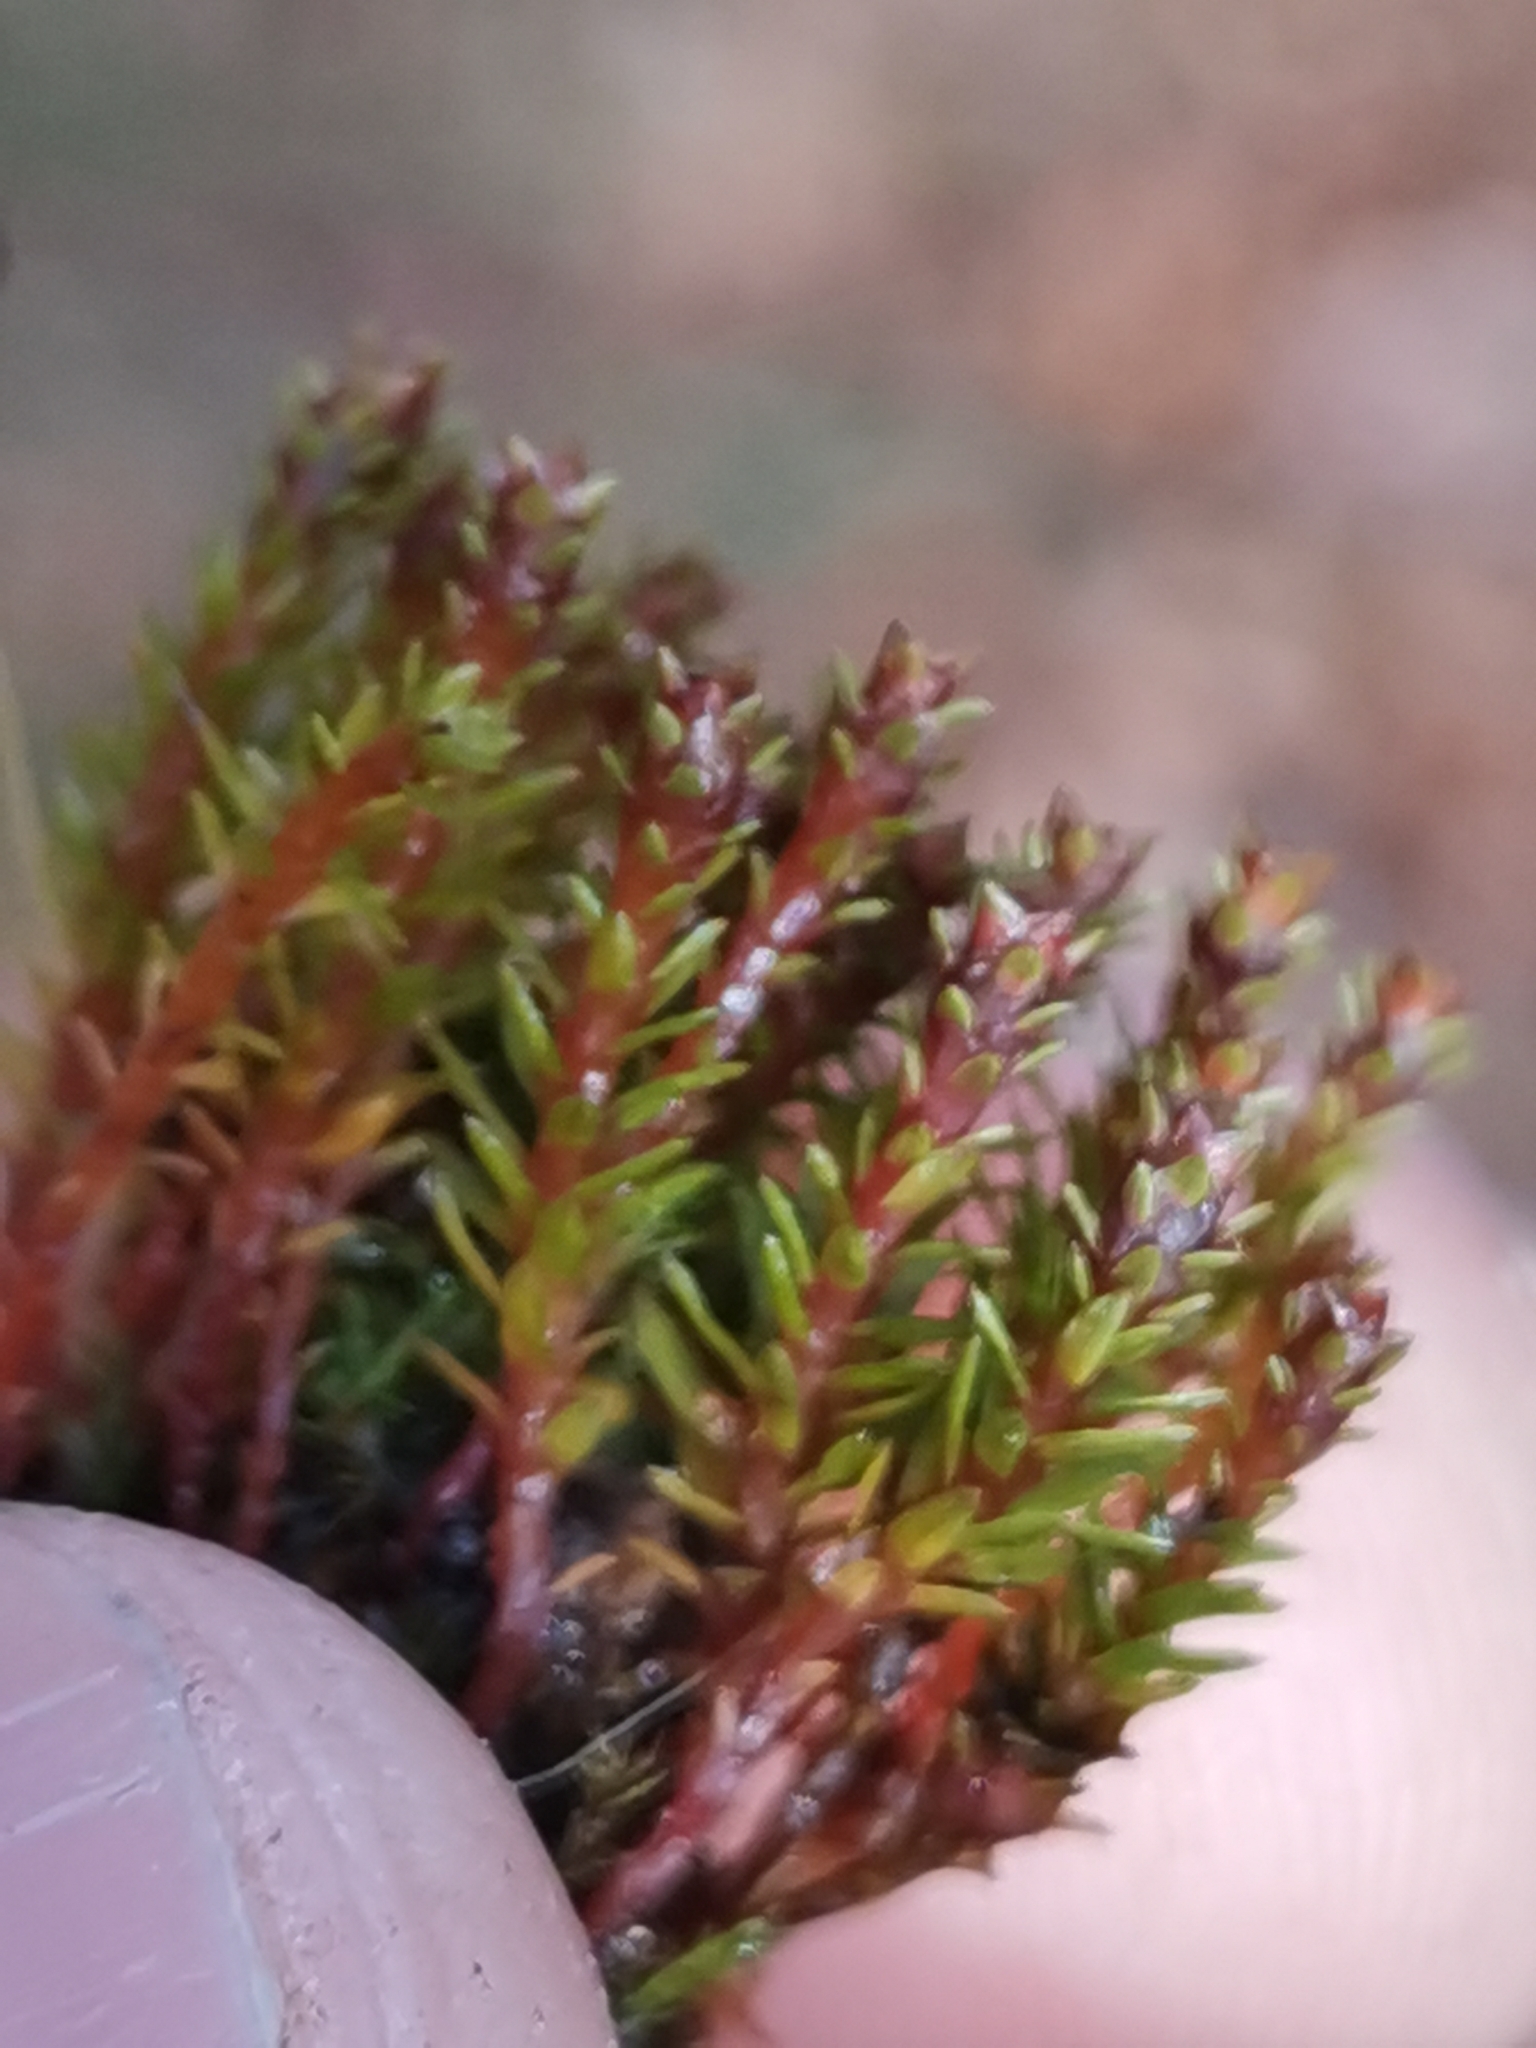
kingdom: Plantae
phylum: Bryophyta
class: Polytrichopsida
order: Polytrichales
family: Polytrichaceae
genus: Pogonatum
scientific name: Pogonatum aloides
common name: Aloe haircap
